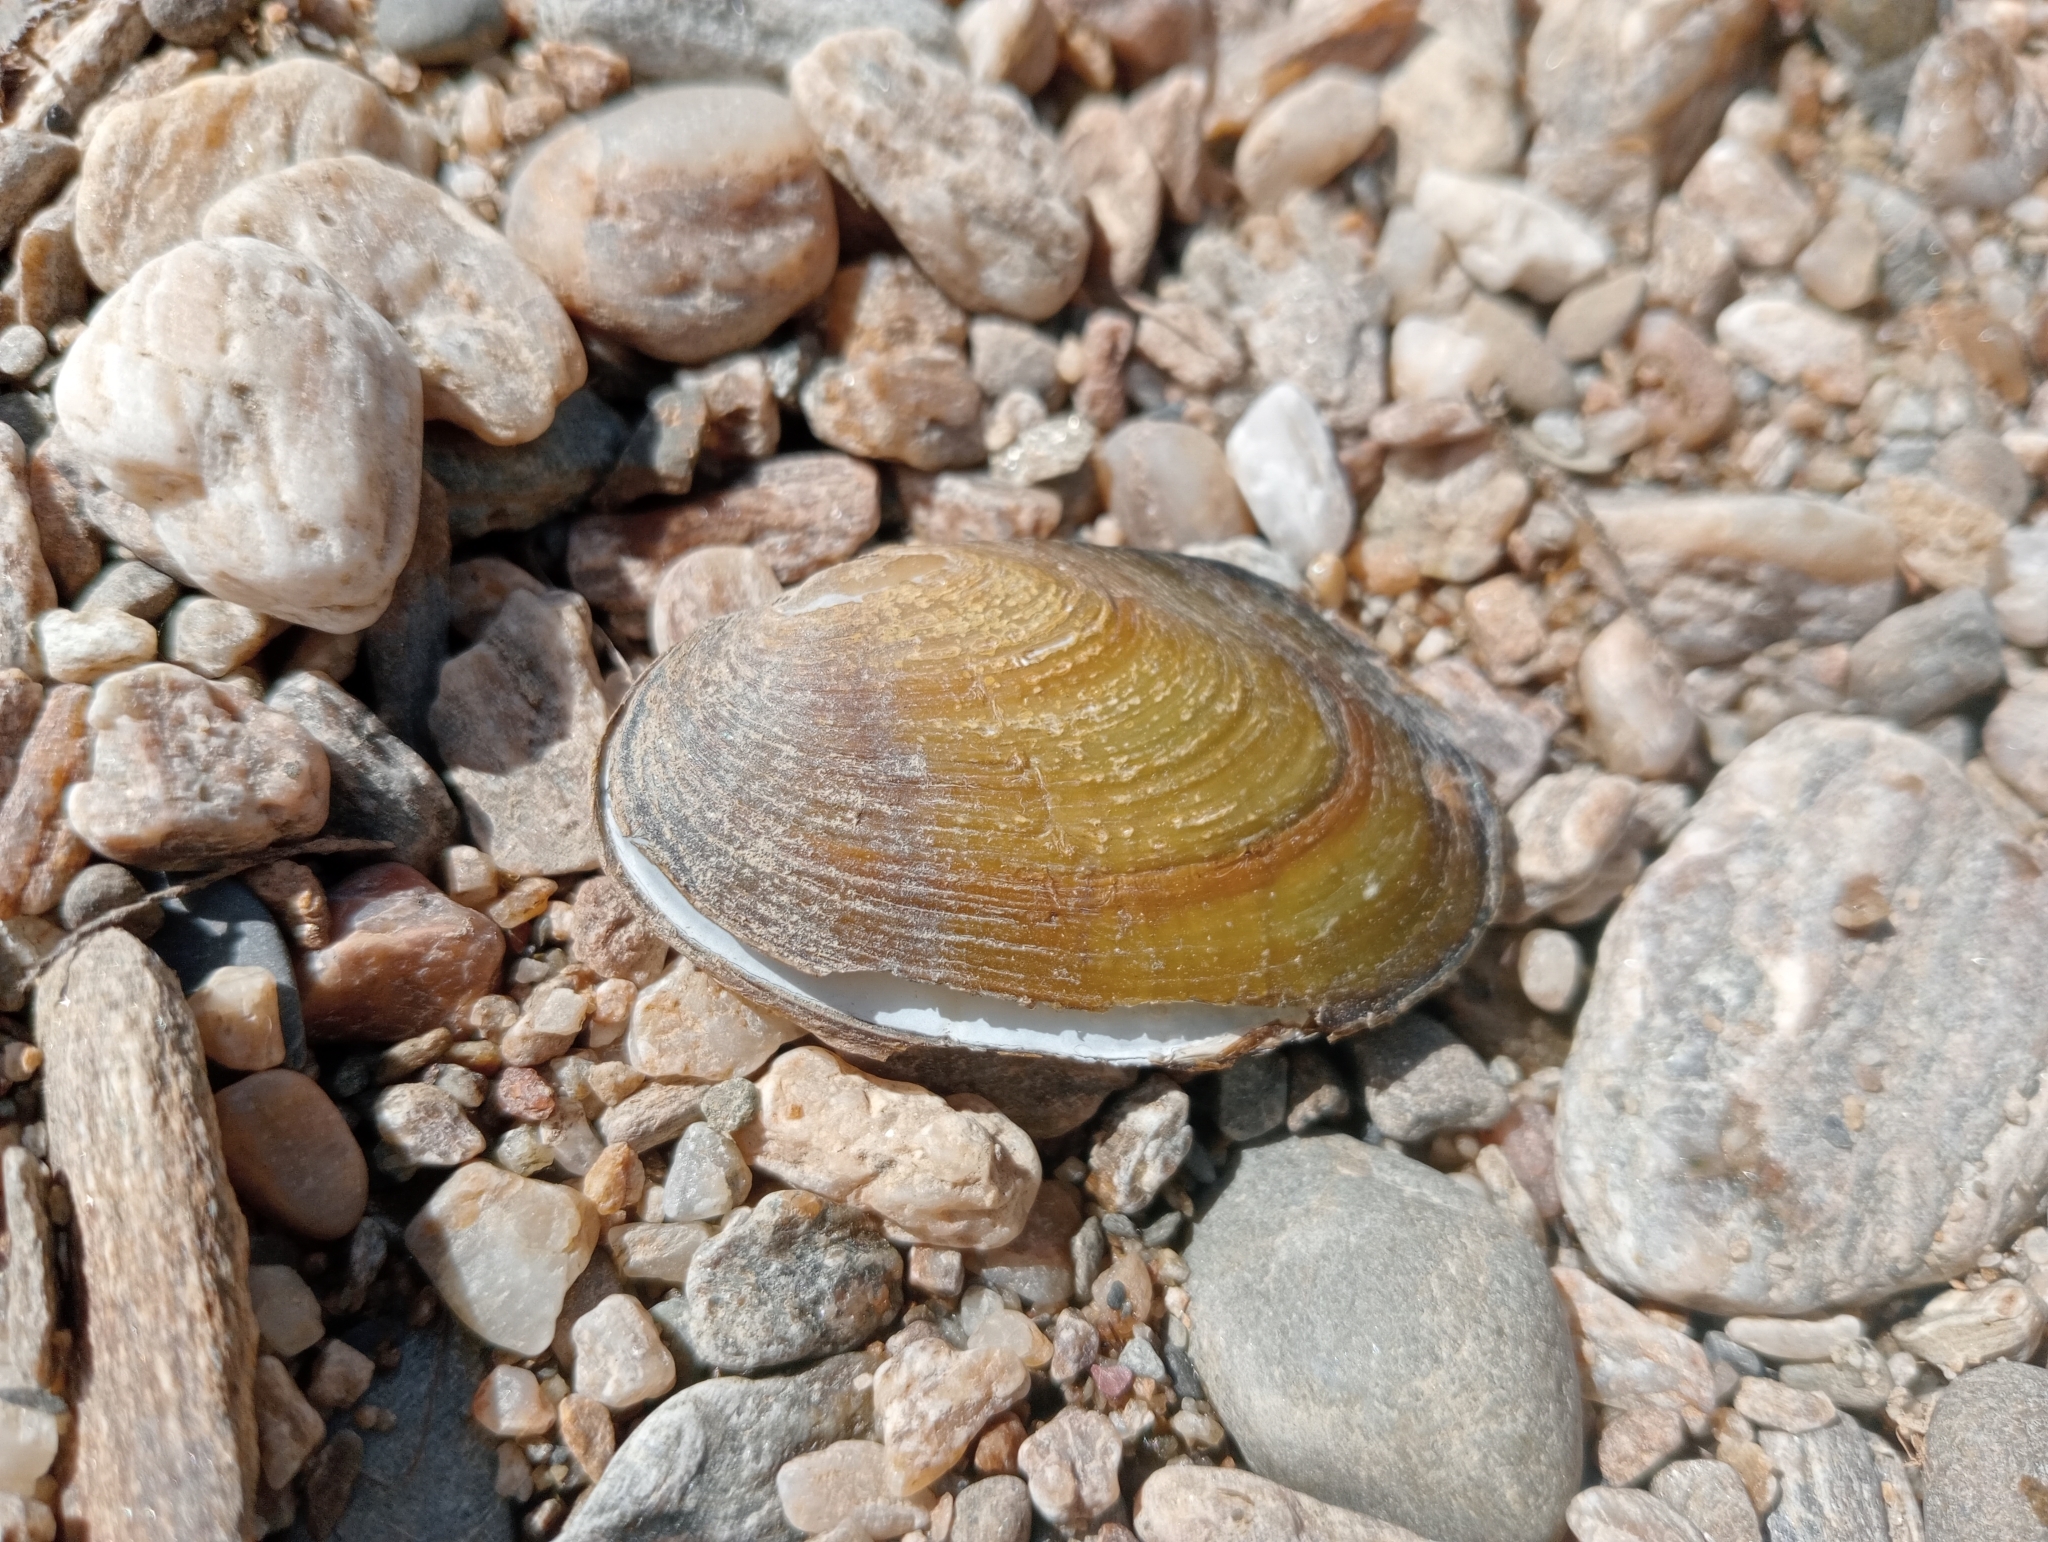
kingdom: Animalia
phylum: Mollusca
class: Bivalvia
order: Unionida
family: Hyriidae
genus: Echyridella
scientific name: Echyridella menziesii
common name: New zealand freshwater mussel
